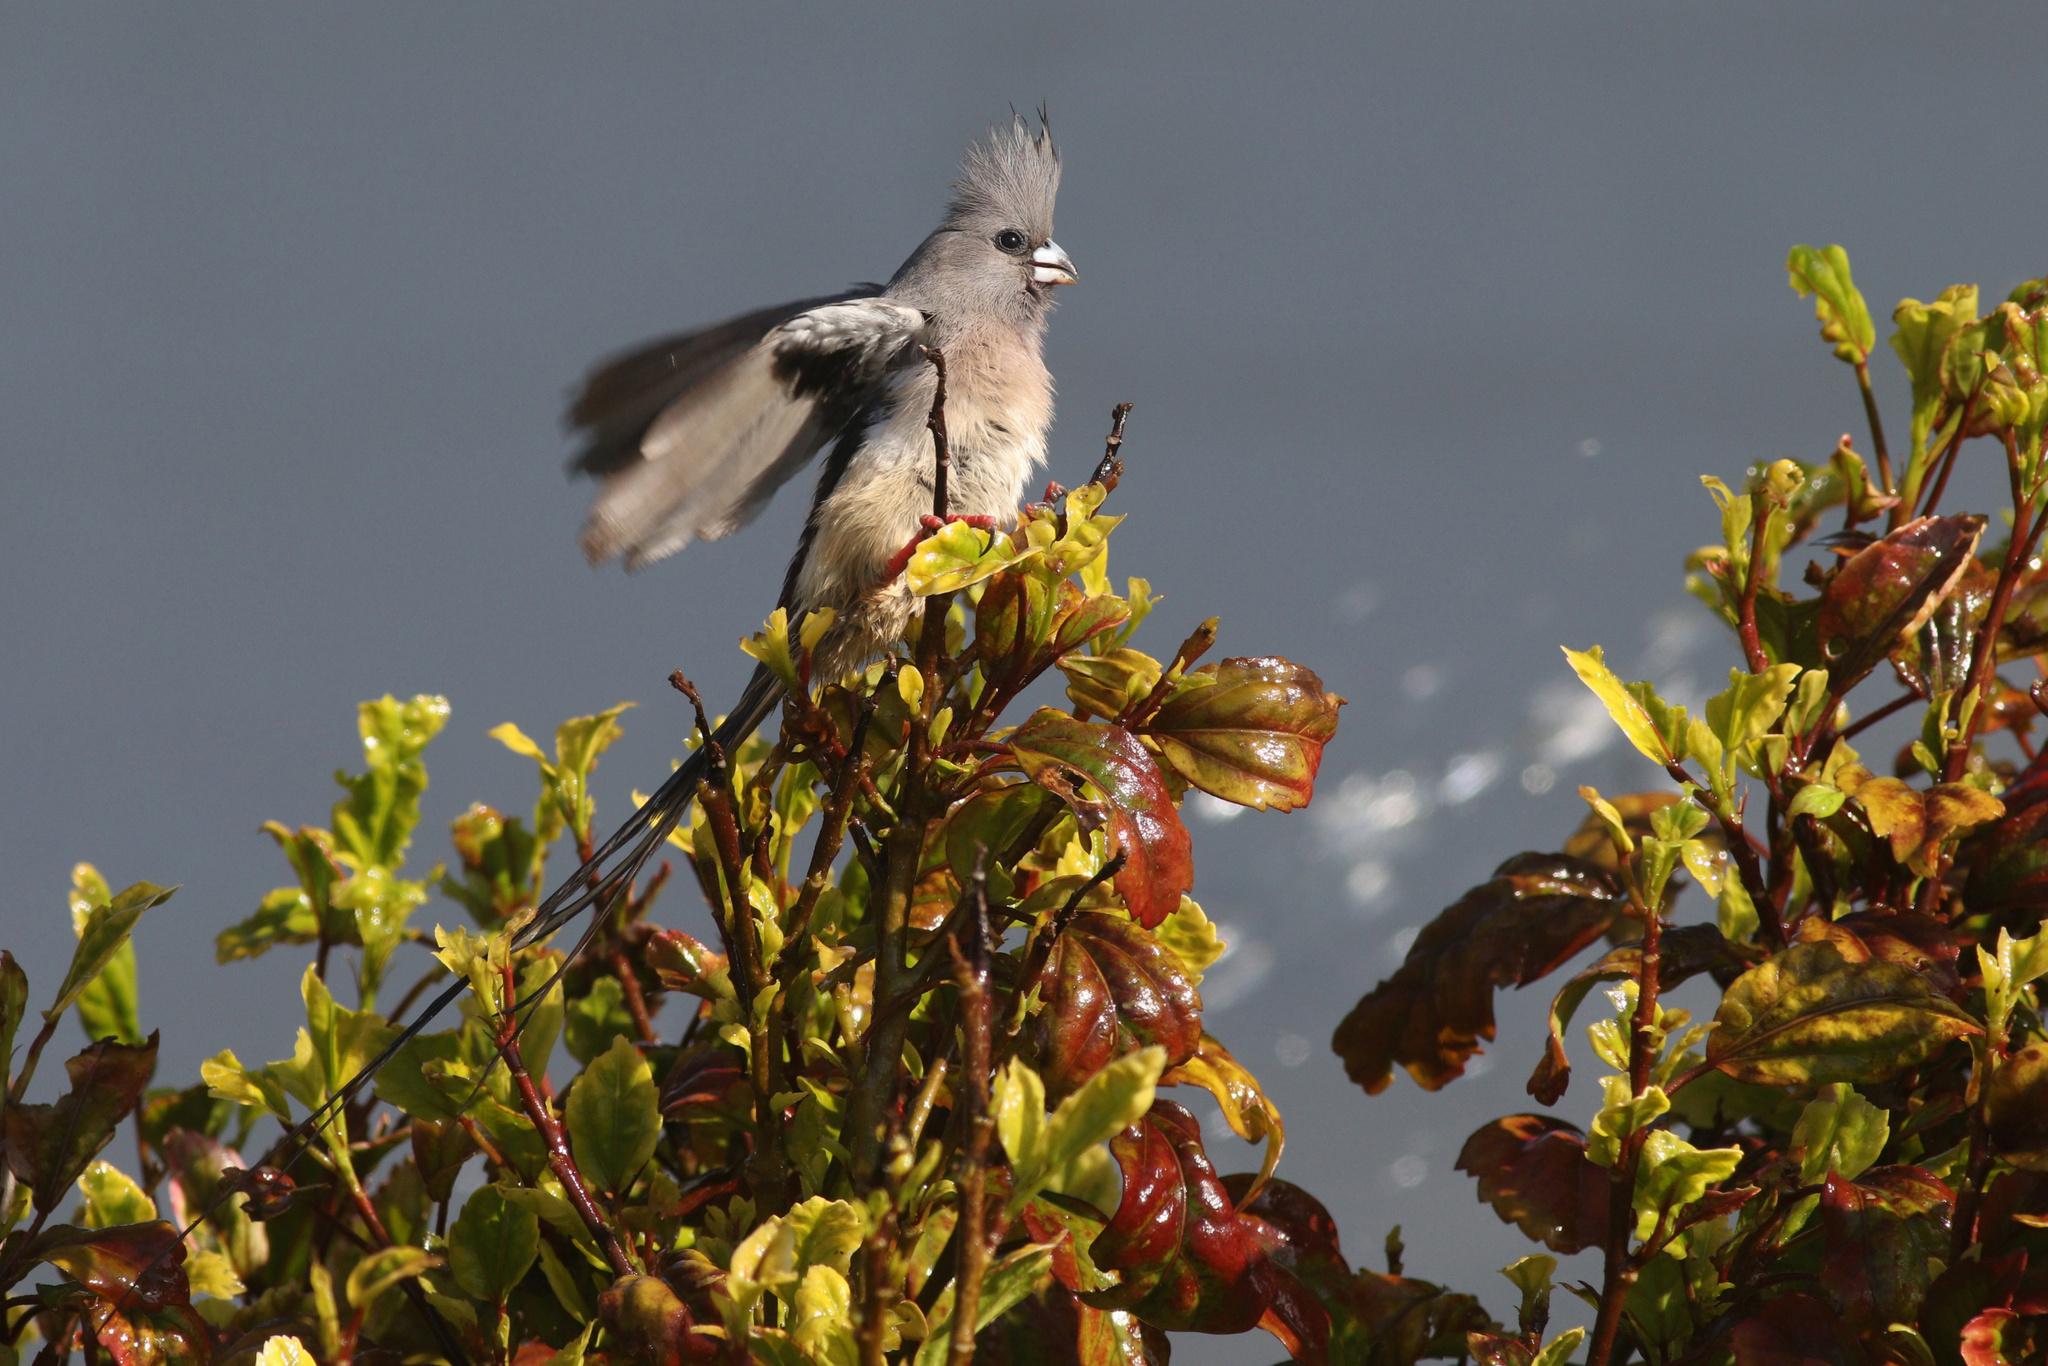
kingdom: Animalia
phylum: Chordata
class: Aves
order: Coliiformes
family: Coliidae
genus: Colius
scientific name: Colius colius
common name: White-backed mousebird
